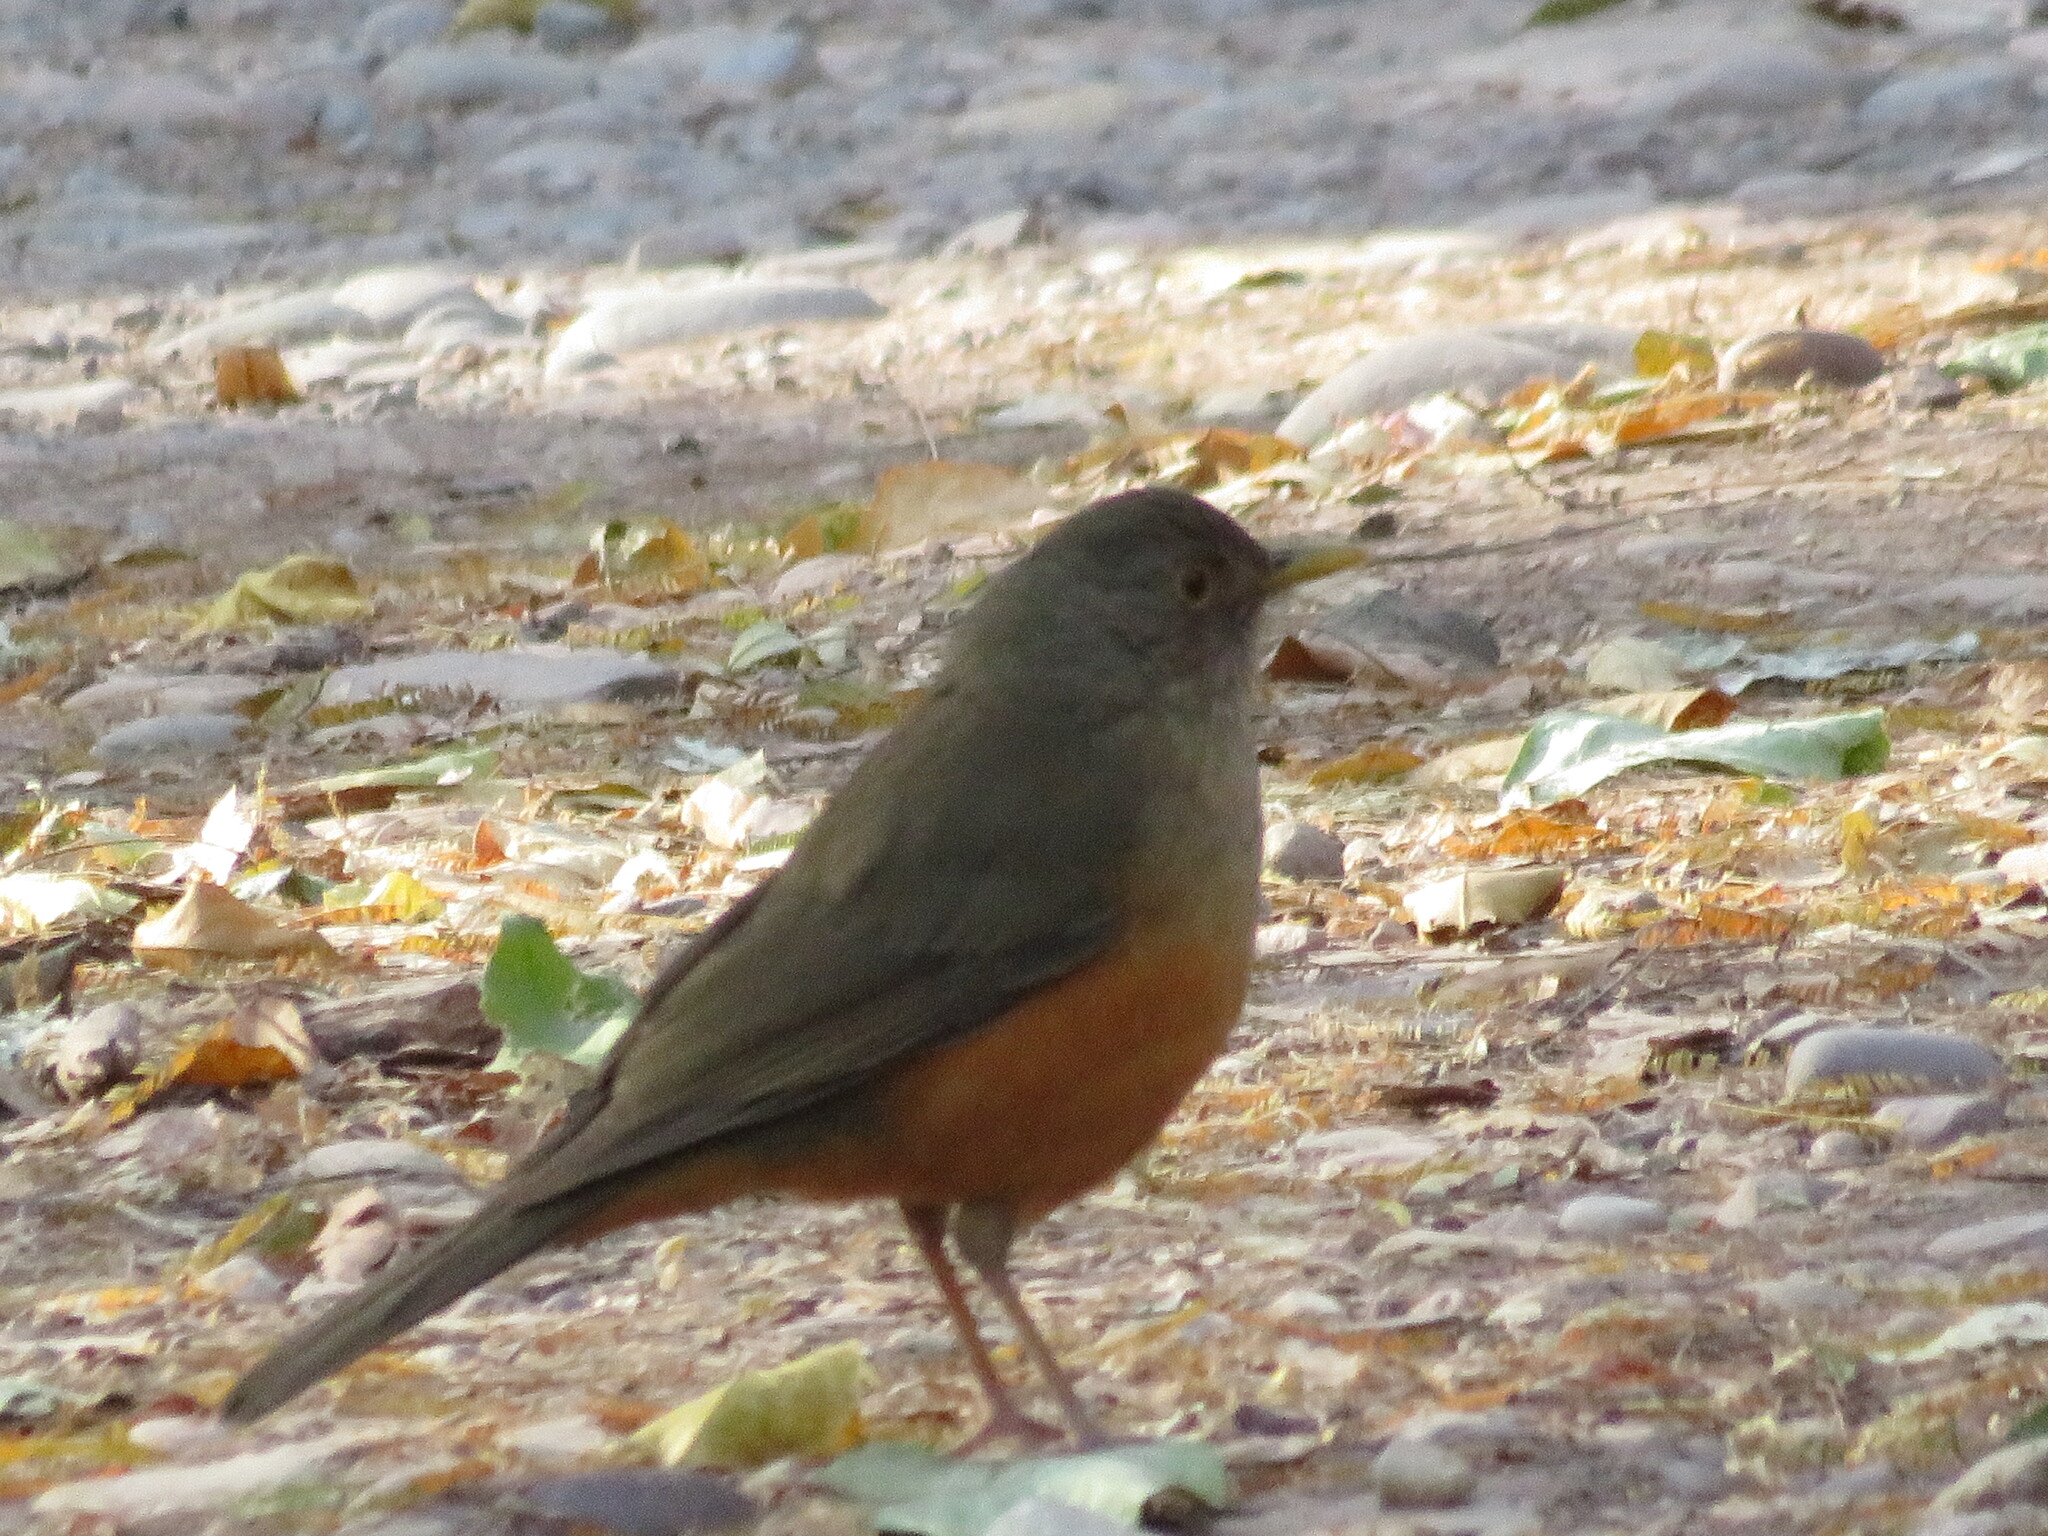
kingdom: Animalia
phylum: Chordata
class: Aves
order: Passeriformes
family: Turdidae
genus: Turdus
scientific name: Turdus rufiventris
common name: Rufous-bellied thrush
